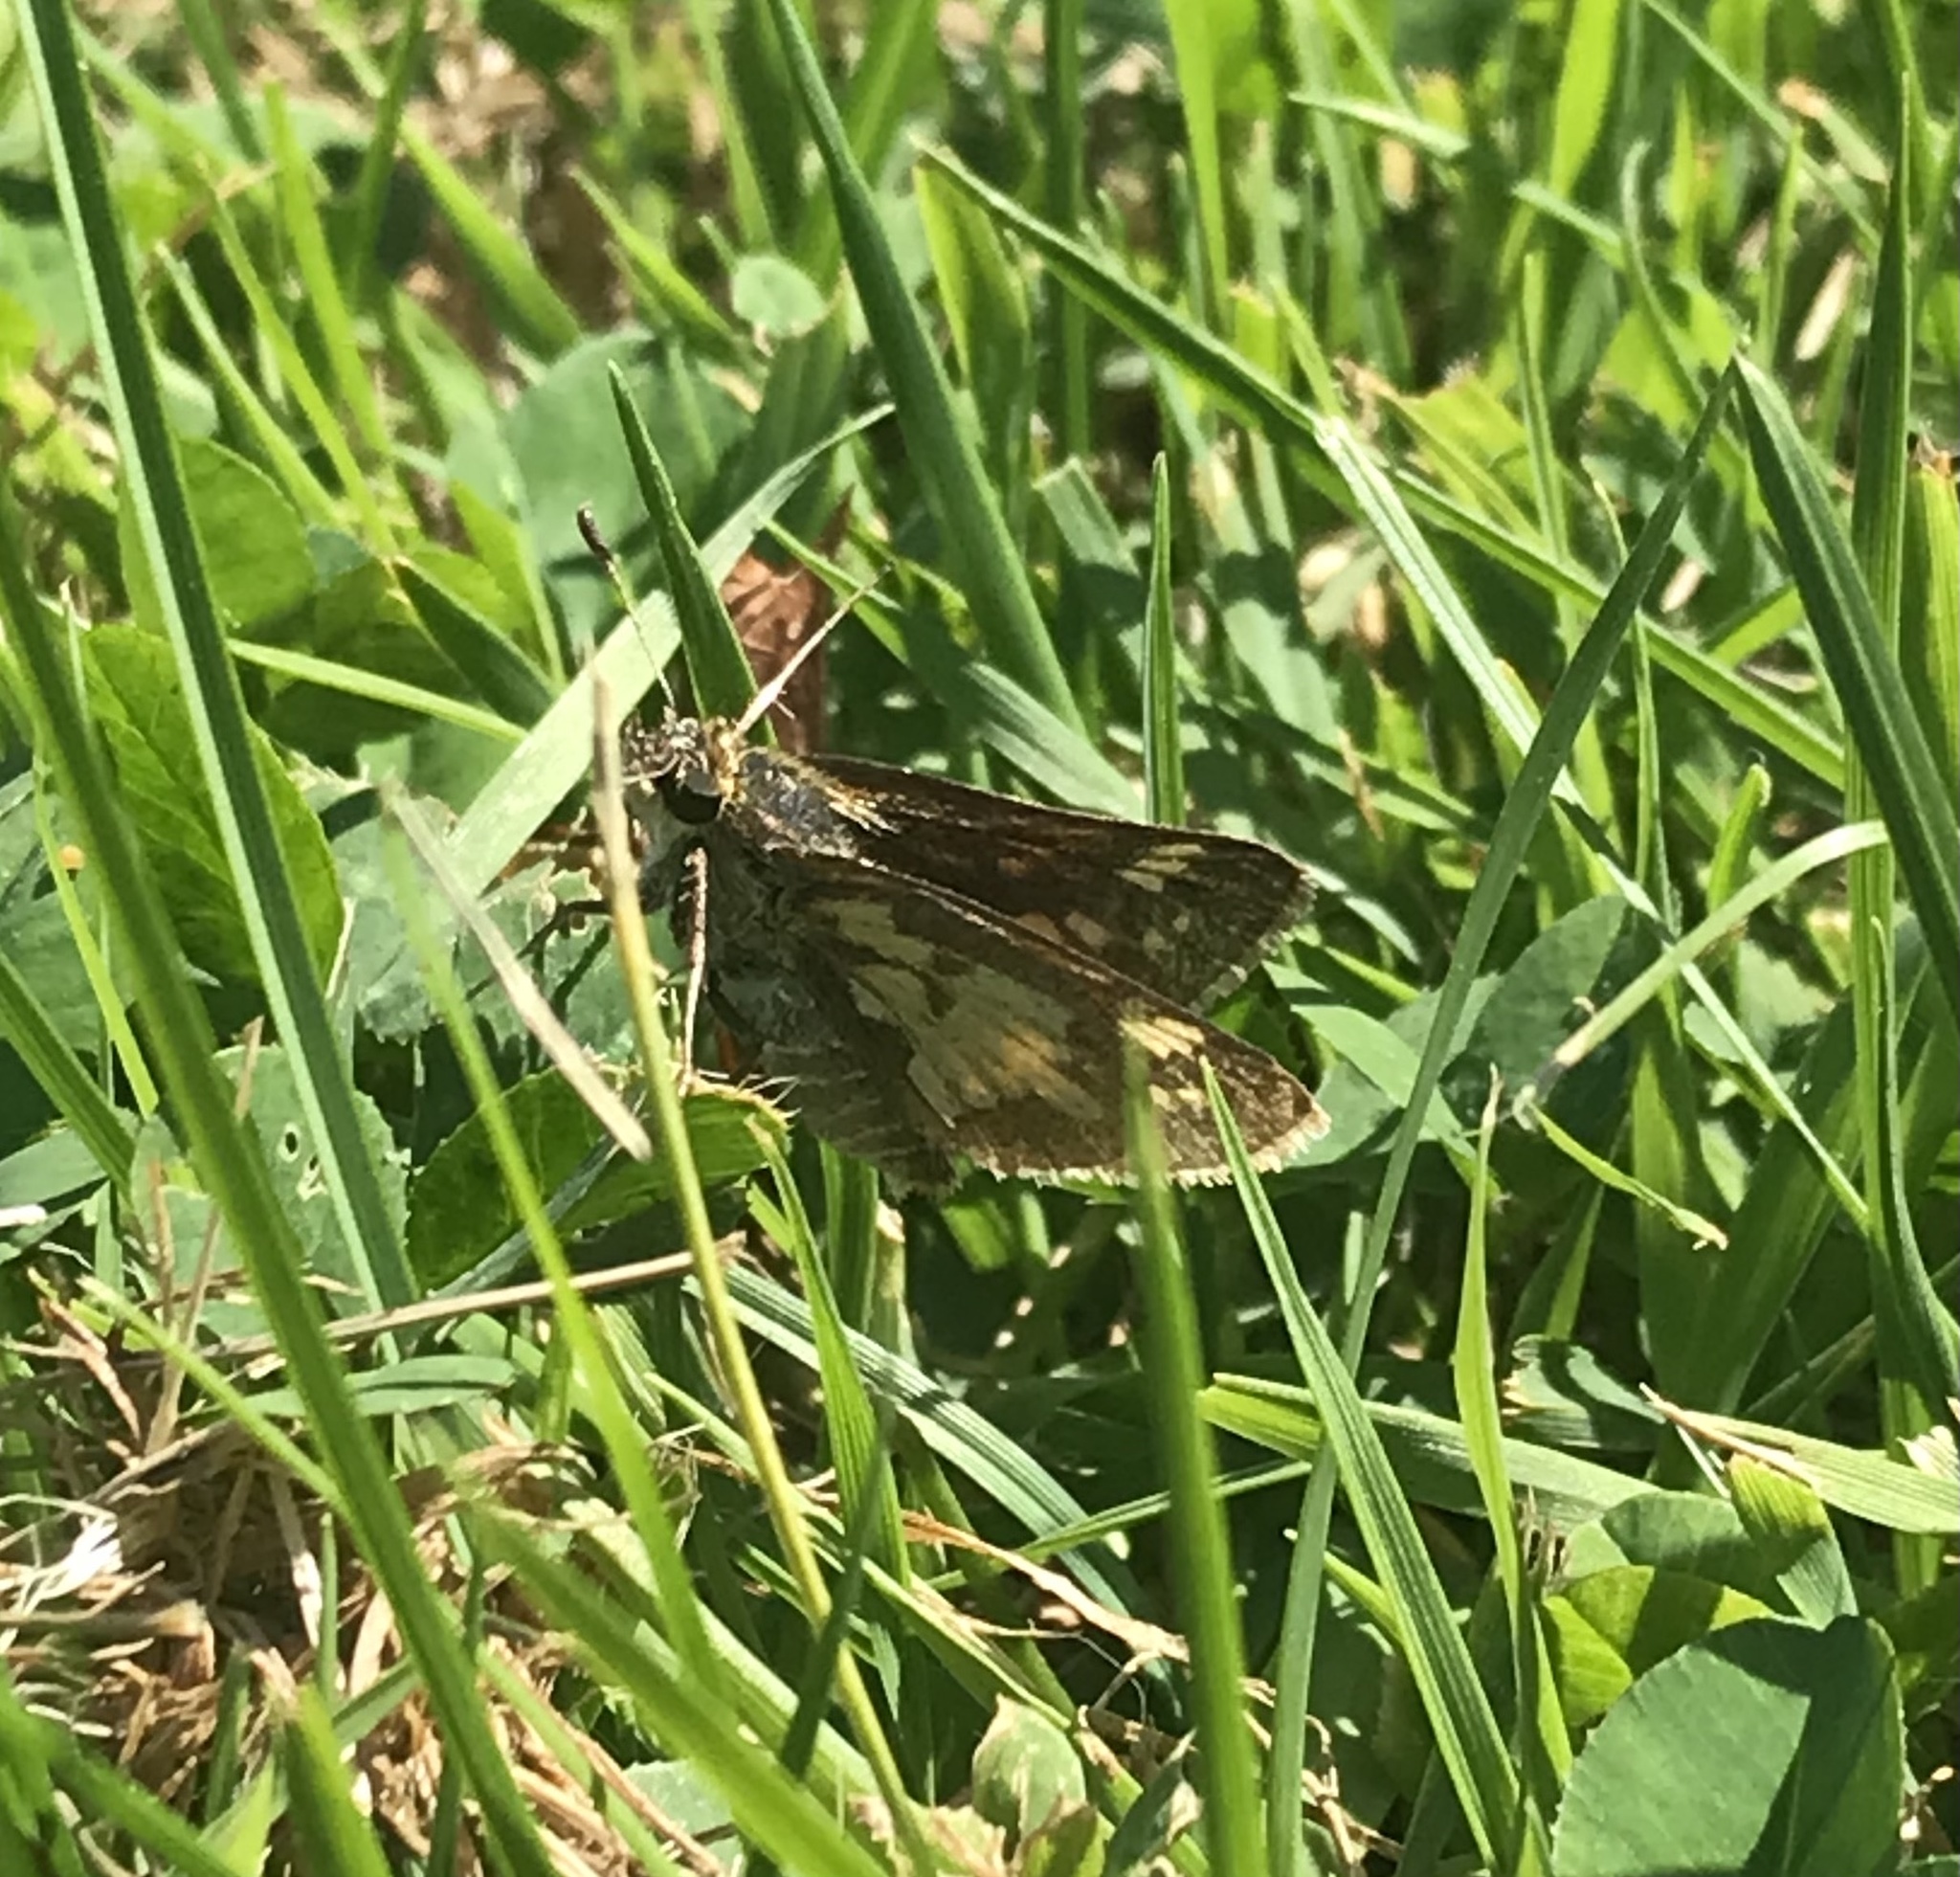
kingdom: Animalia
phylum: Arthropoda
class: Insecta
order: Lepidoptera
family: Hesperiidae
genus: Polites
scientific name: Polites coras
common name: Peck's skipper
